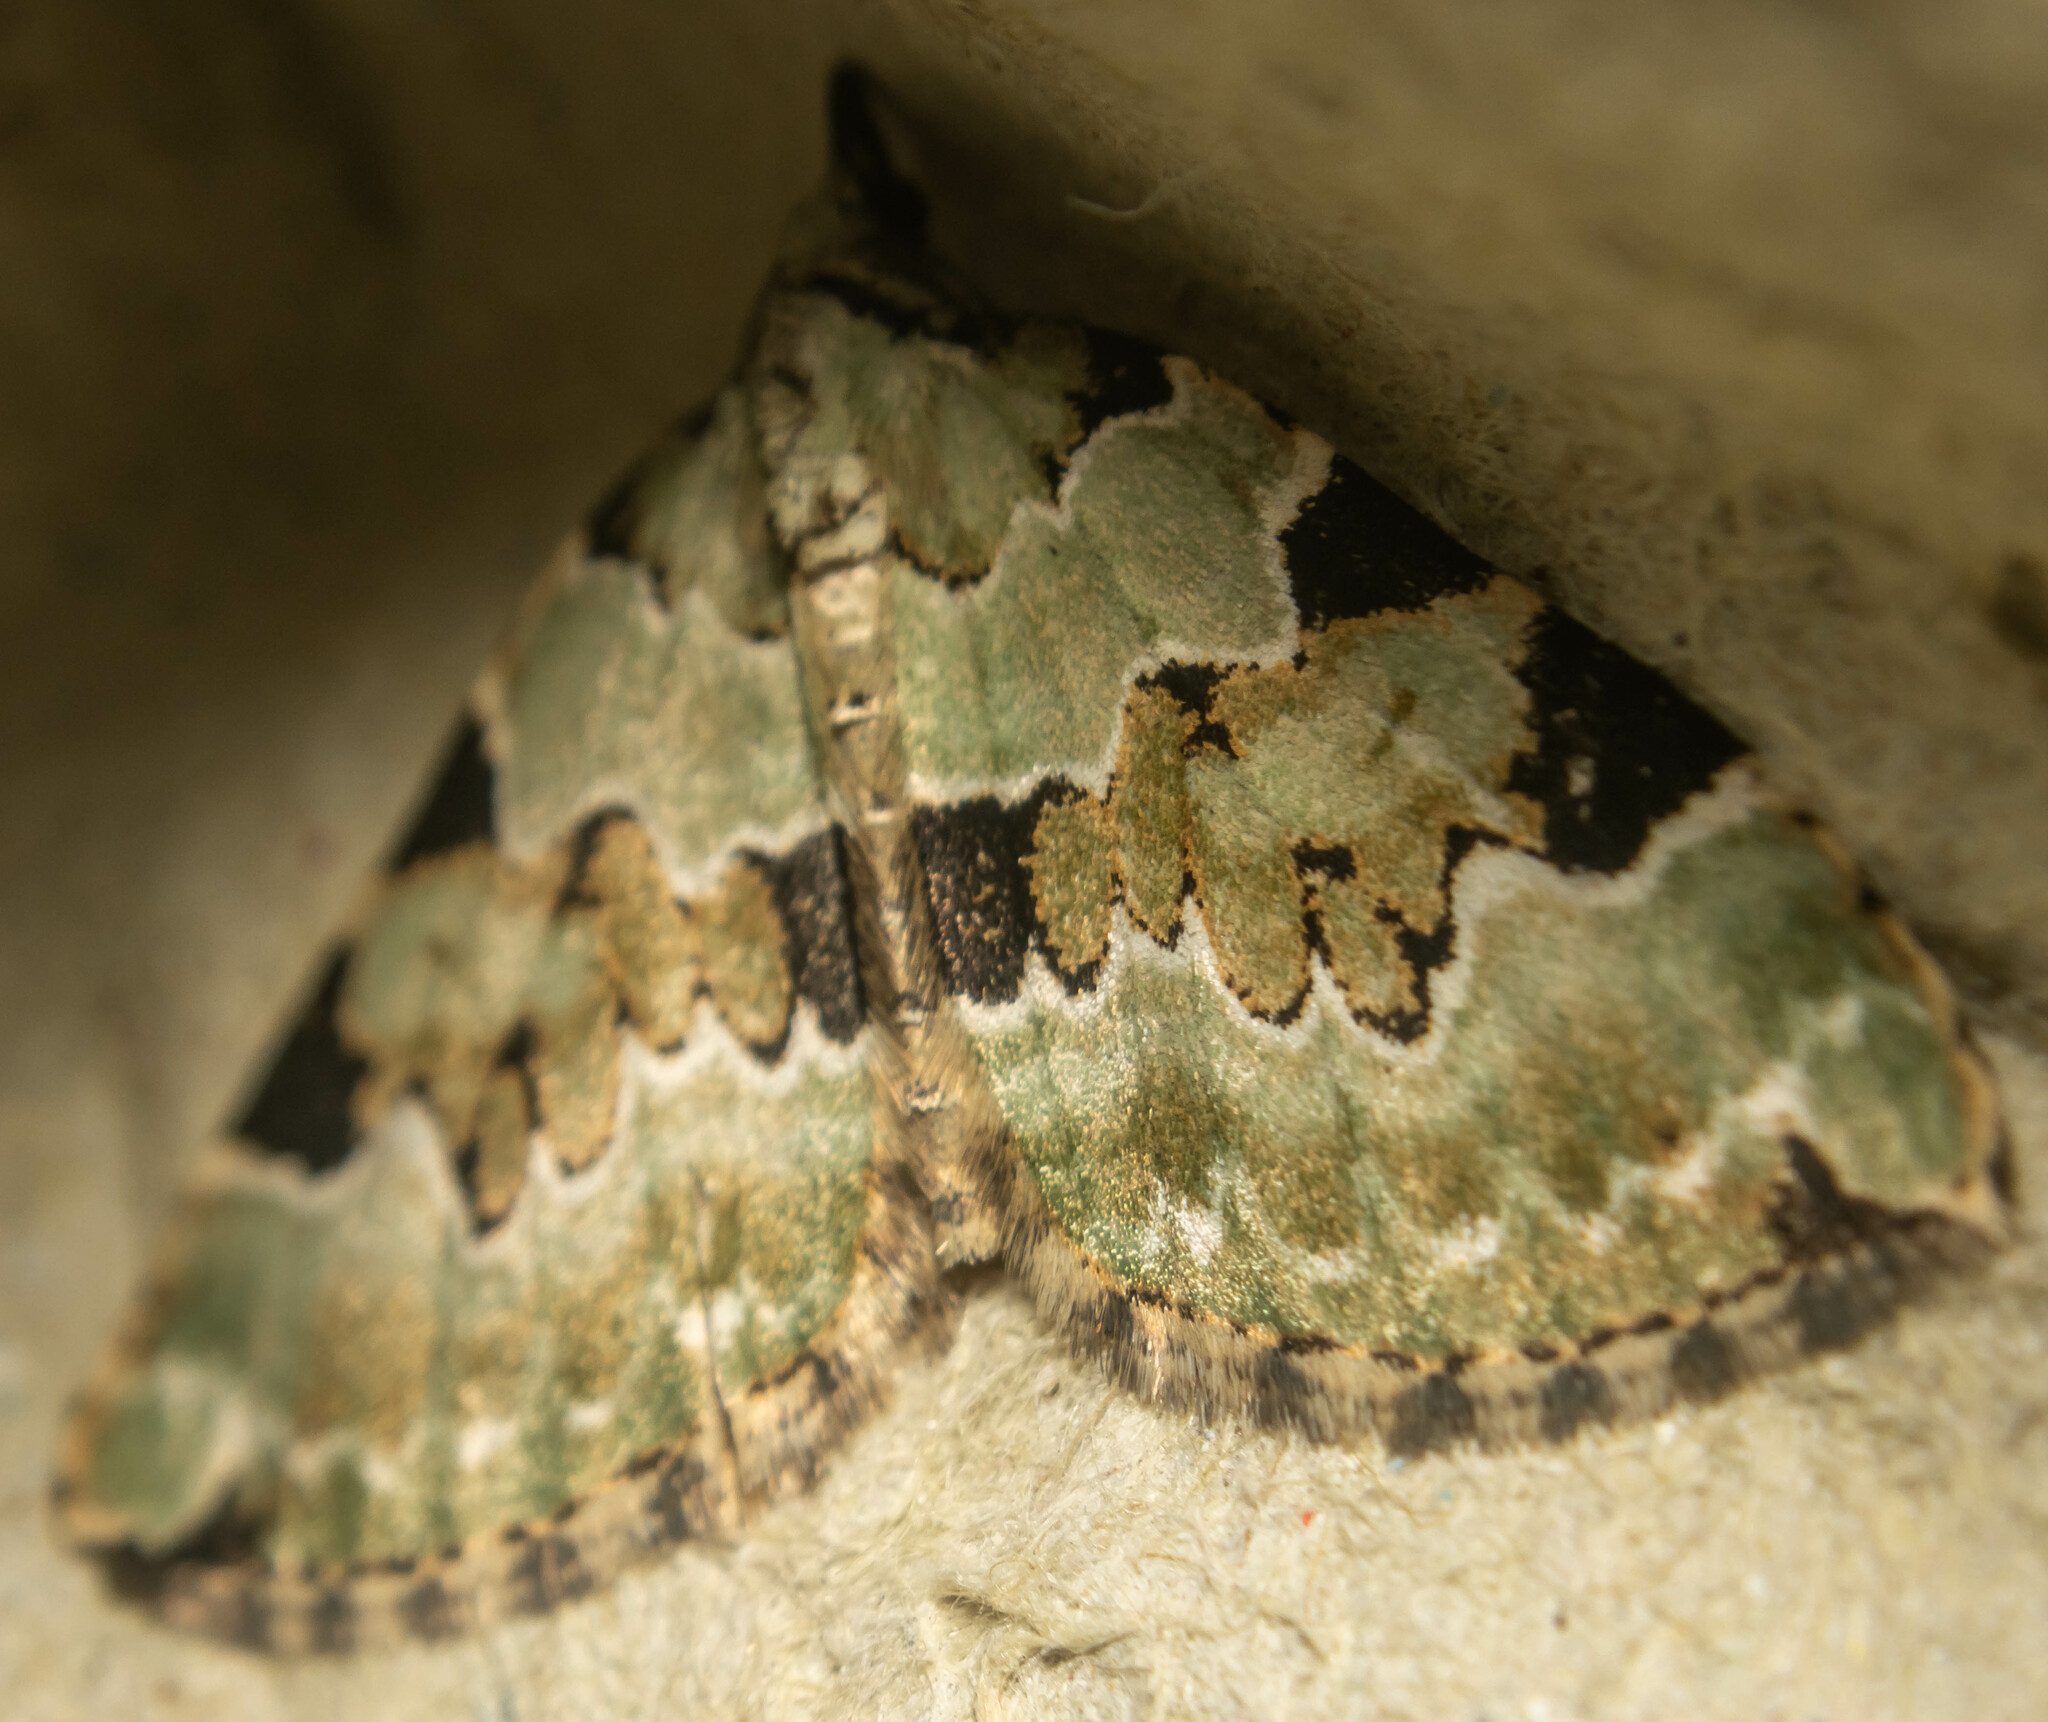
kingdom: Animalia
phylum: Arthropoda
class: Insecta
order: Lepidoptera
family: Geometridae
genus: Colostygia
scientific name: Colostygia pectinataria
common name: Green carpet
